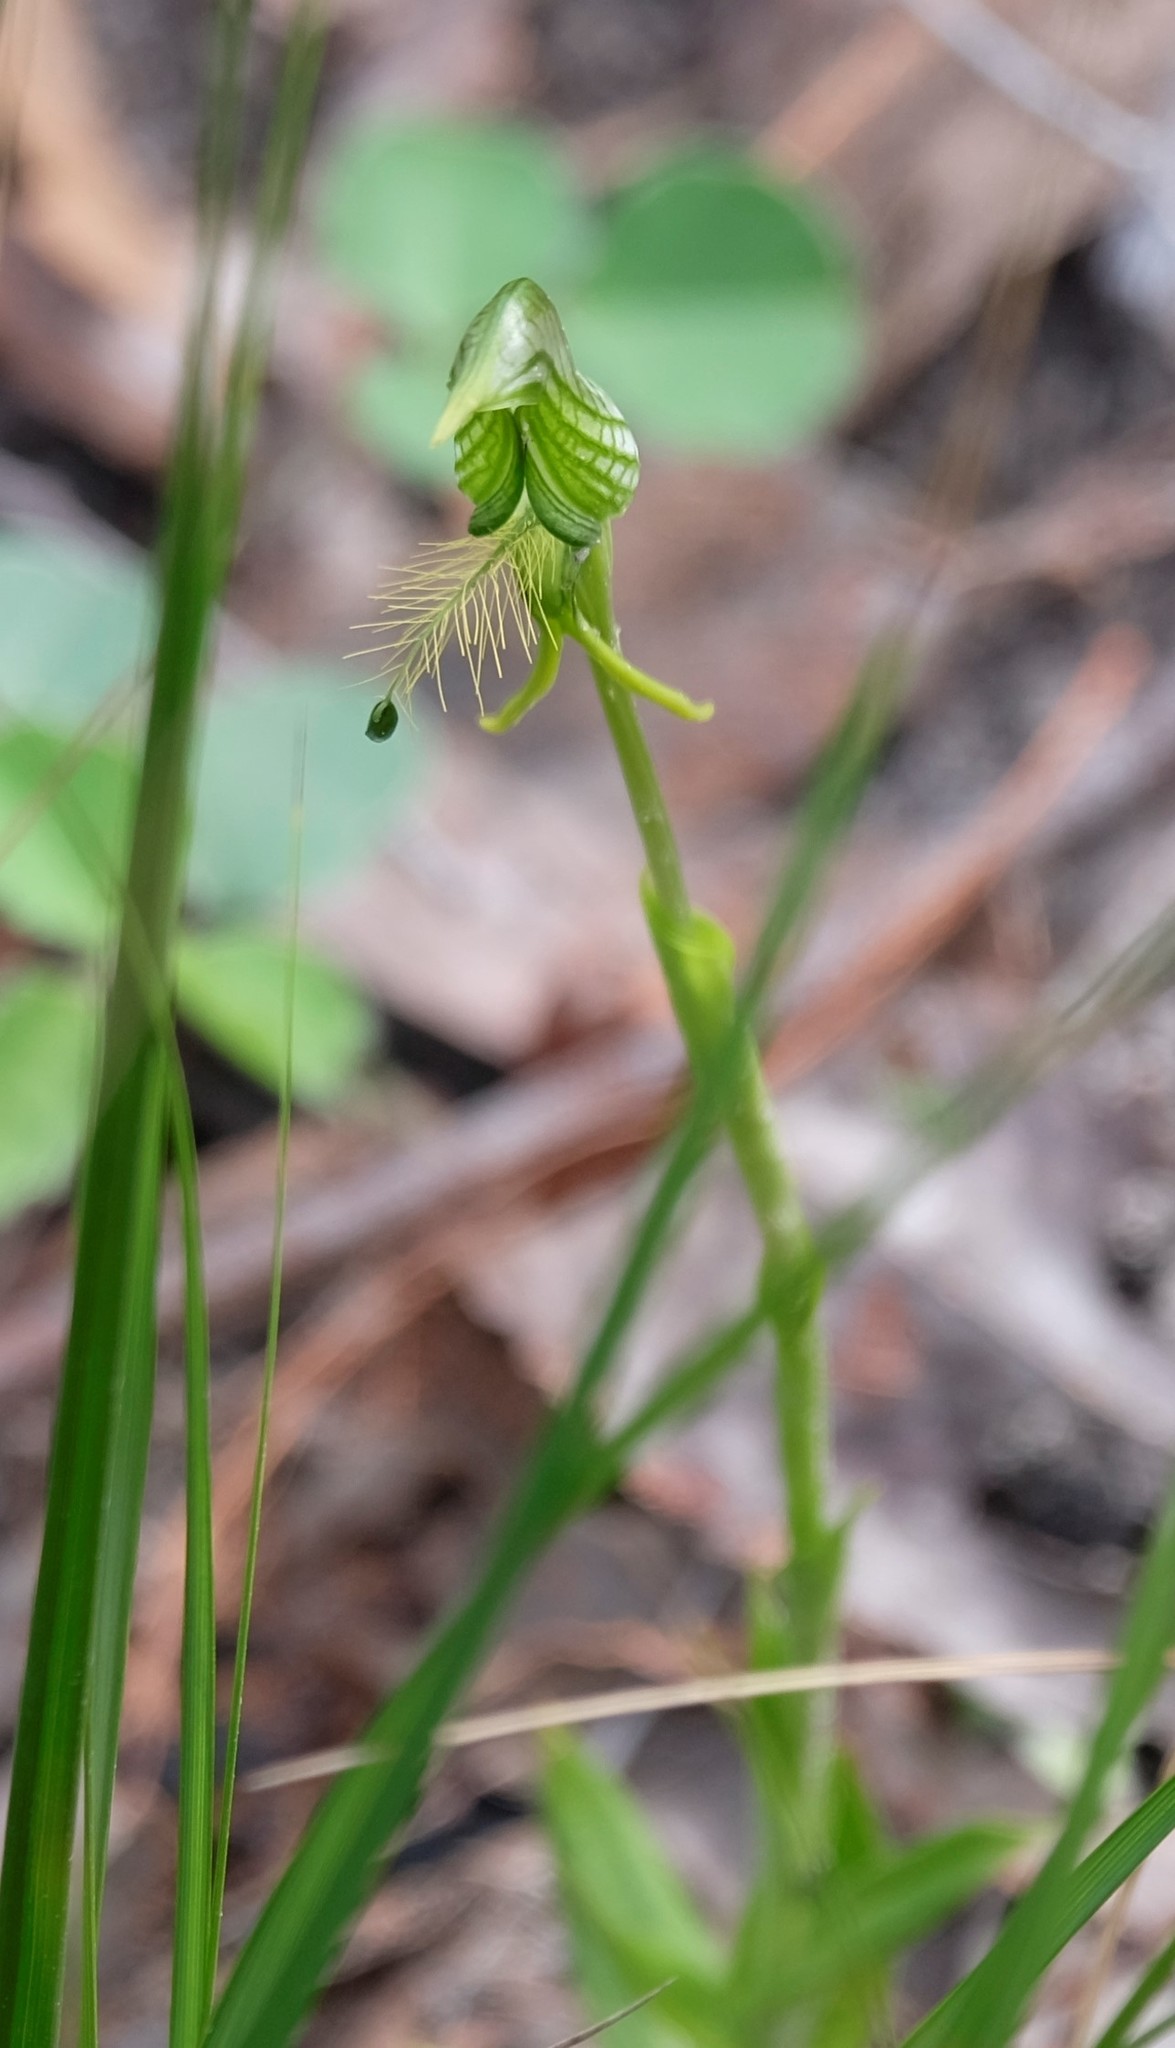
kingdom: Plantae
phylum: Tracheophyta
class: Liliopsida
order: Asparagales
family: Orchidaceae
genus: Pterostylis
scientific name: Pterostylis unicornis
